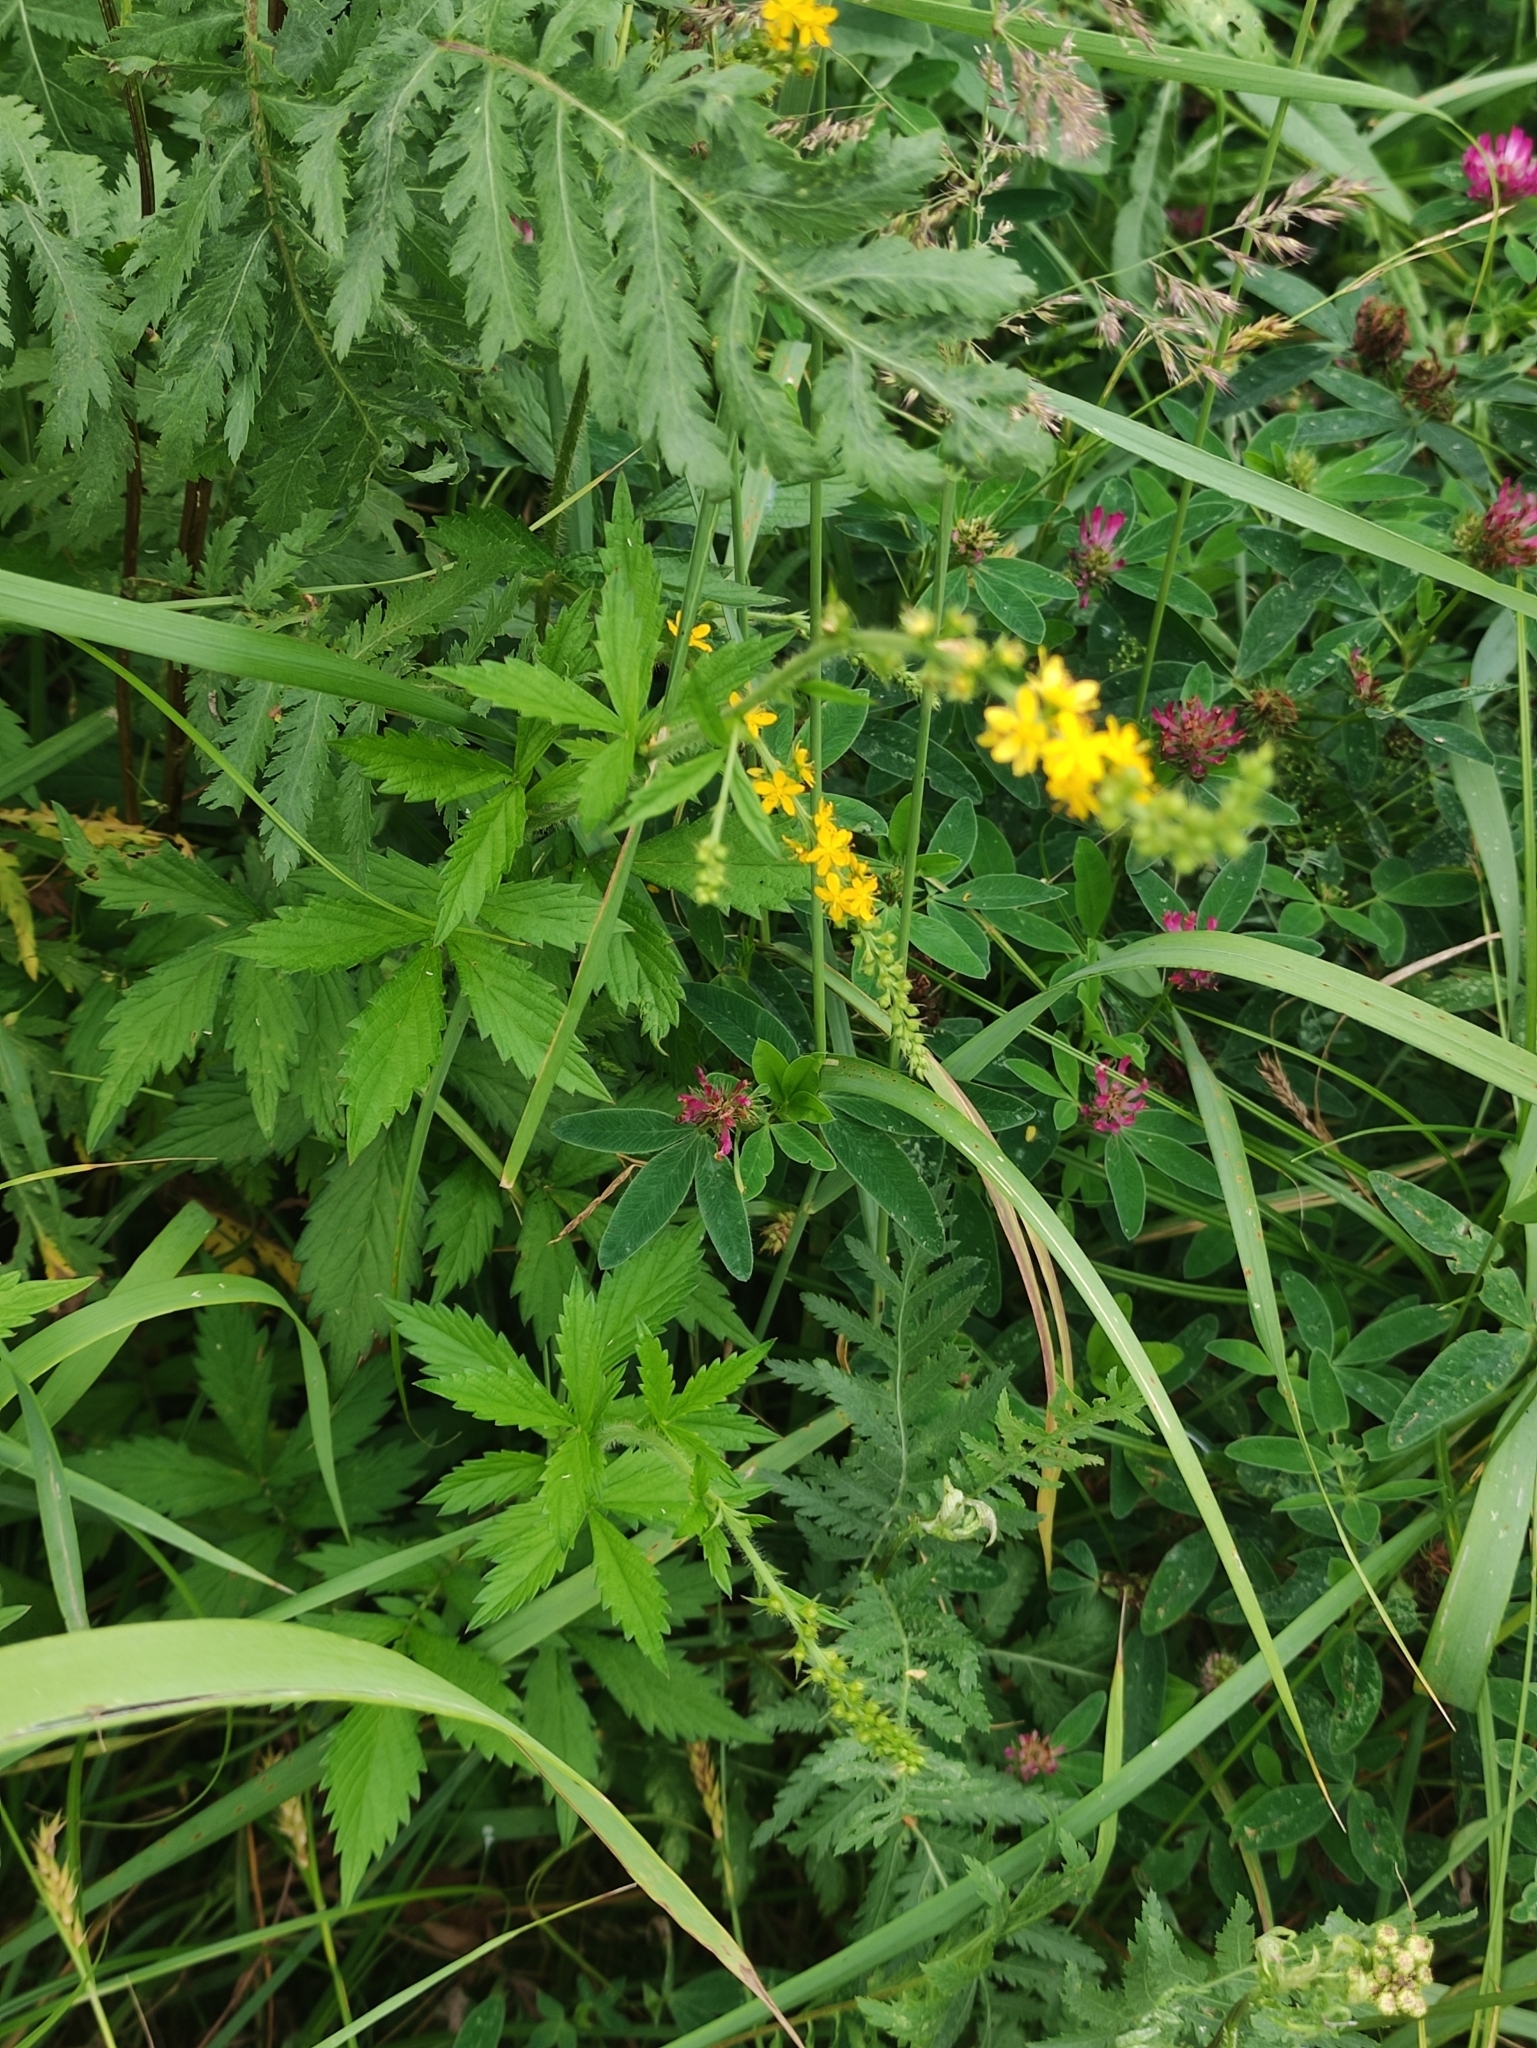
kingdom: Plantae
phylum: Tracheophyta
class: Magnoliopsida
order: Rosales
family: Rosaceae
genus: Agrimonia
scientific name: Agrimonia pilosa
